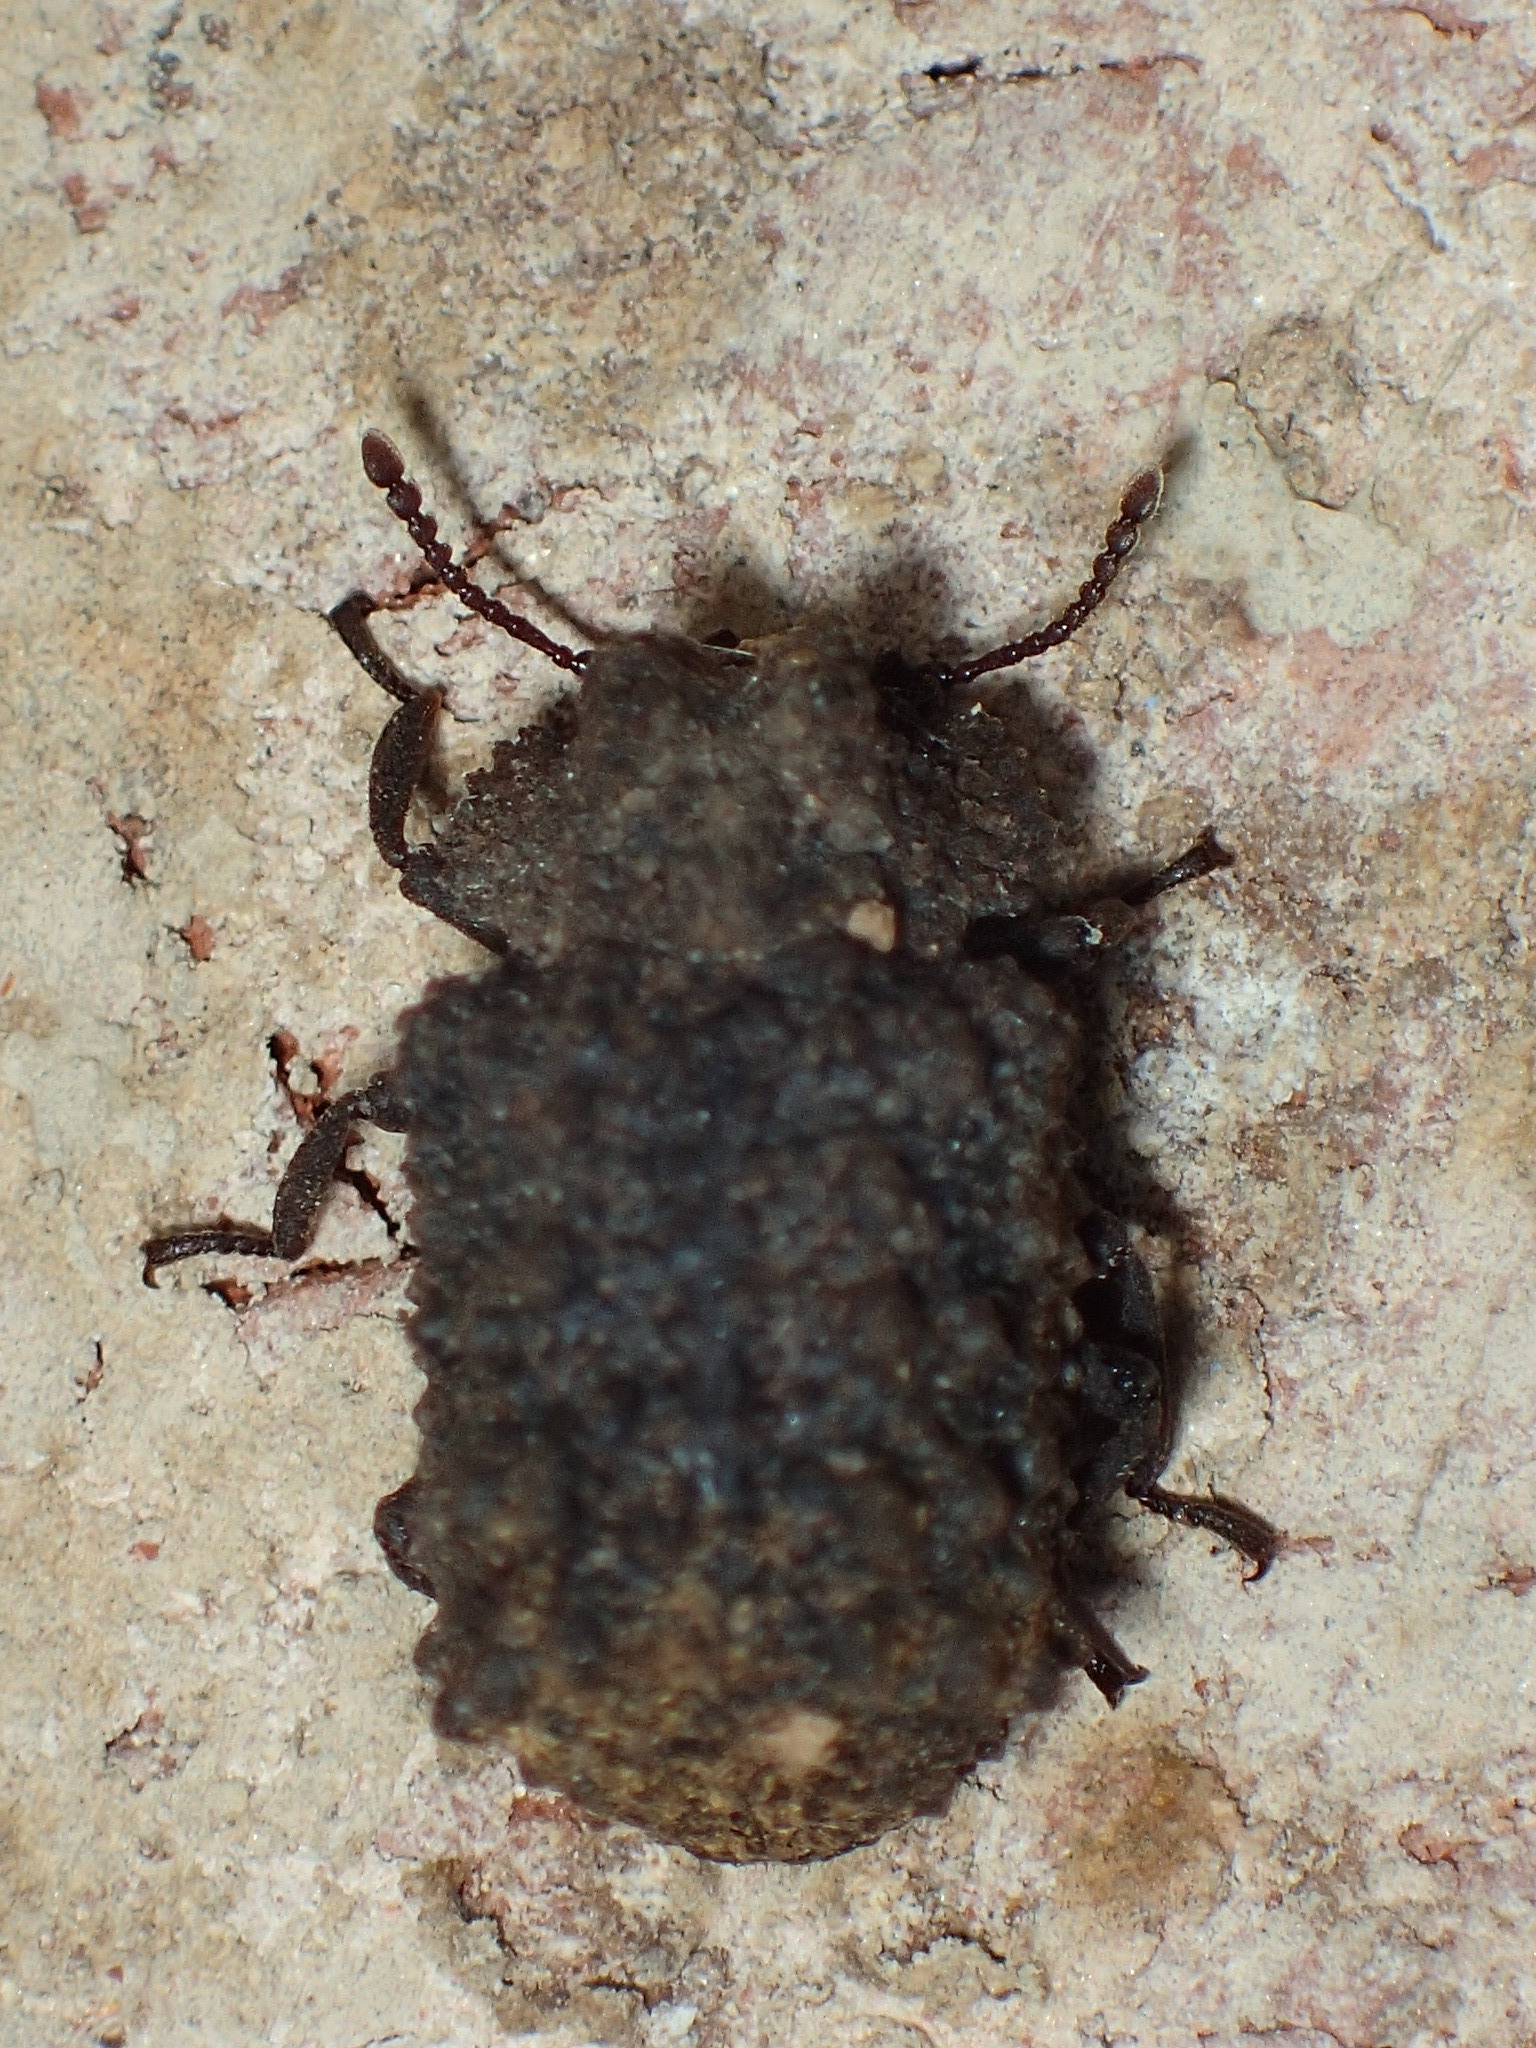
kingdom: Animalia
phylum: Arthropoda
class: Insecta
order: Coleoptera
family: Tenebrionidae
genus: Gnatocerus
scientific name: Gnatocerus cornutus
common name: Broad-horned flour beetle
